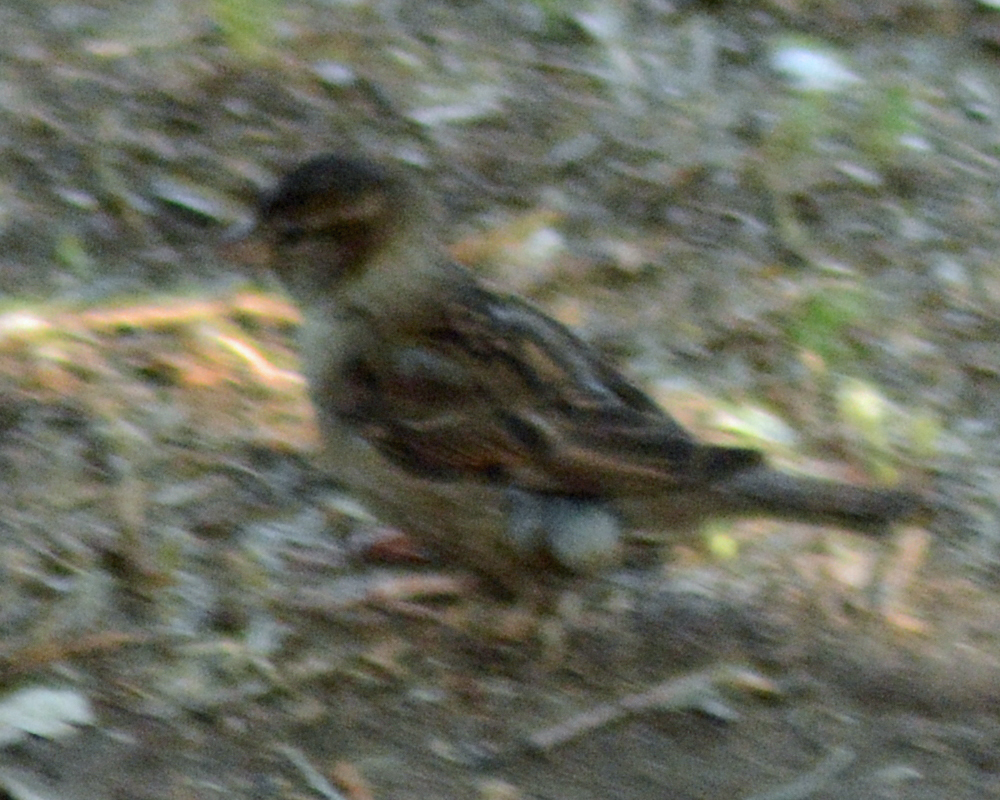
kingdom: Animalia
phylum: Chordata
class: Aves
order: Passeriformes
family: Passeridae
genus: Passer
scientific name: Passer domesticus
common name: House sparrow
